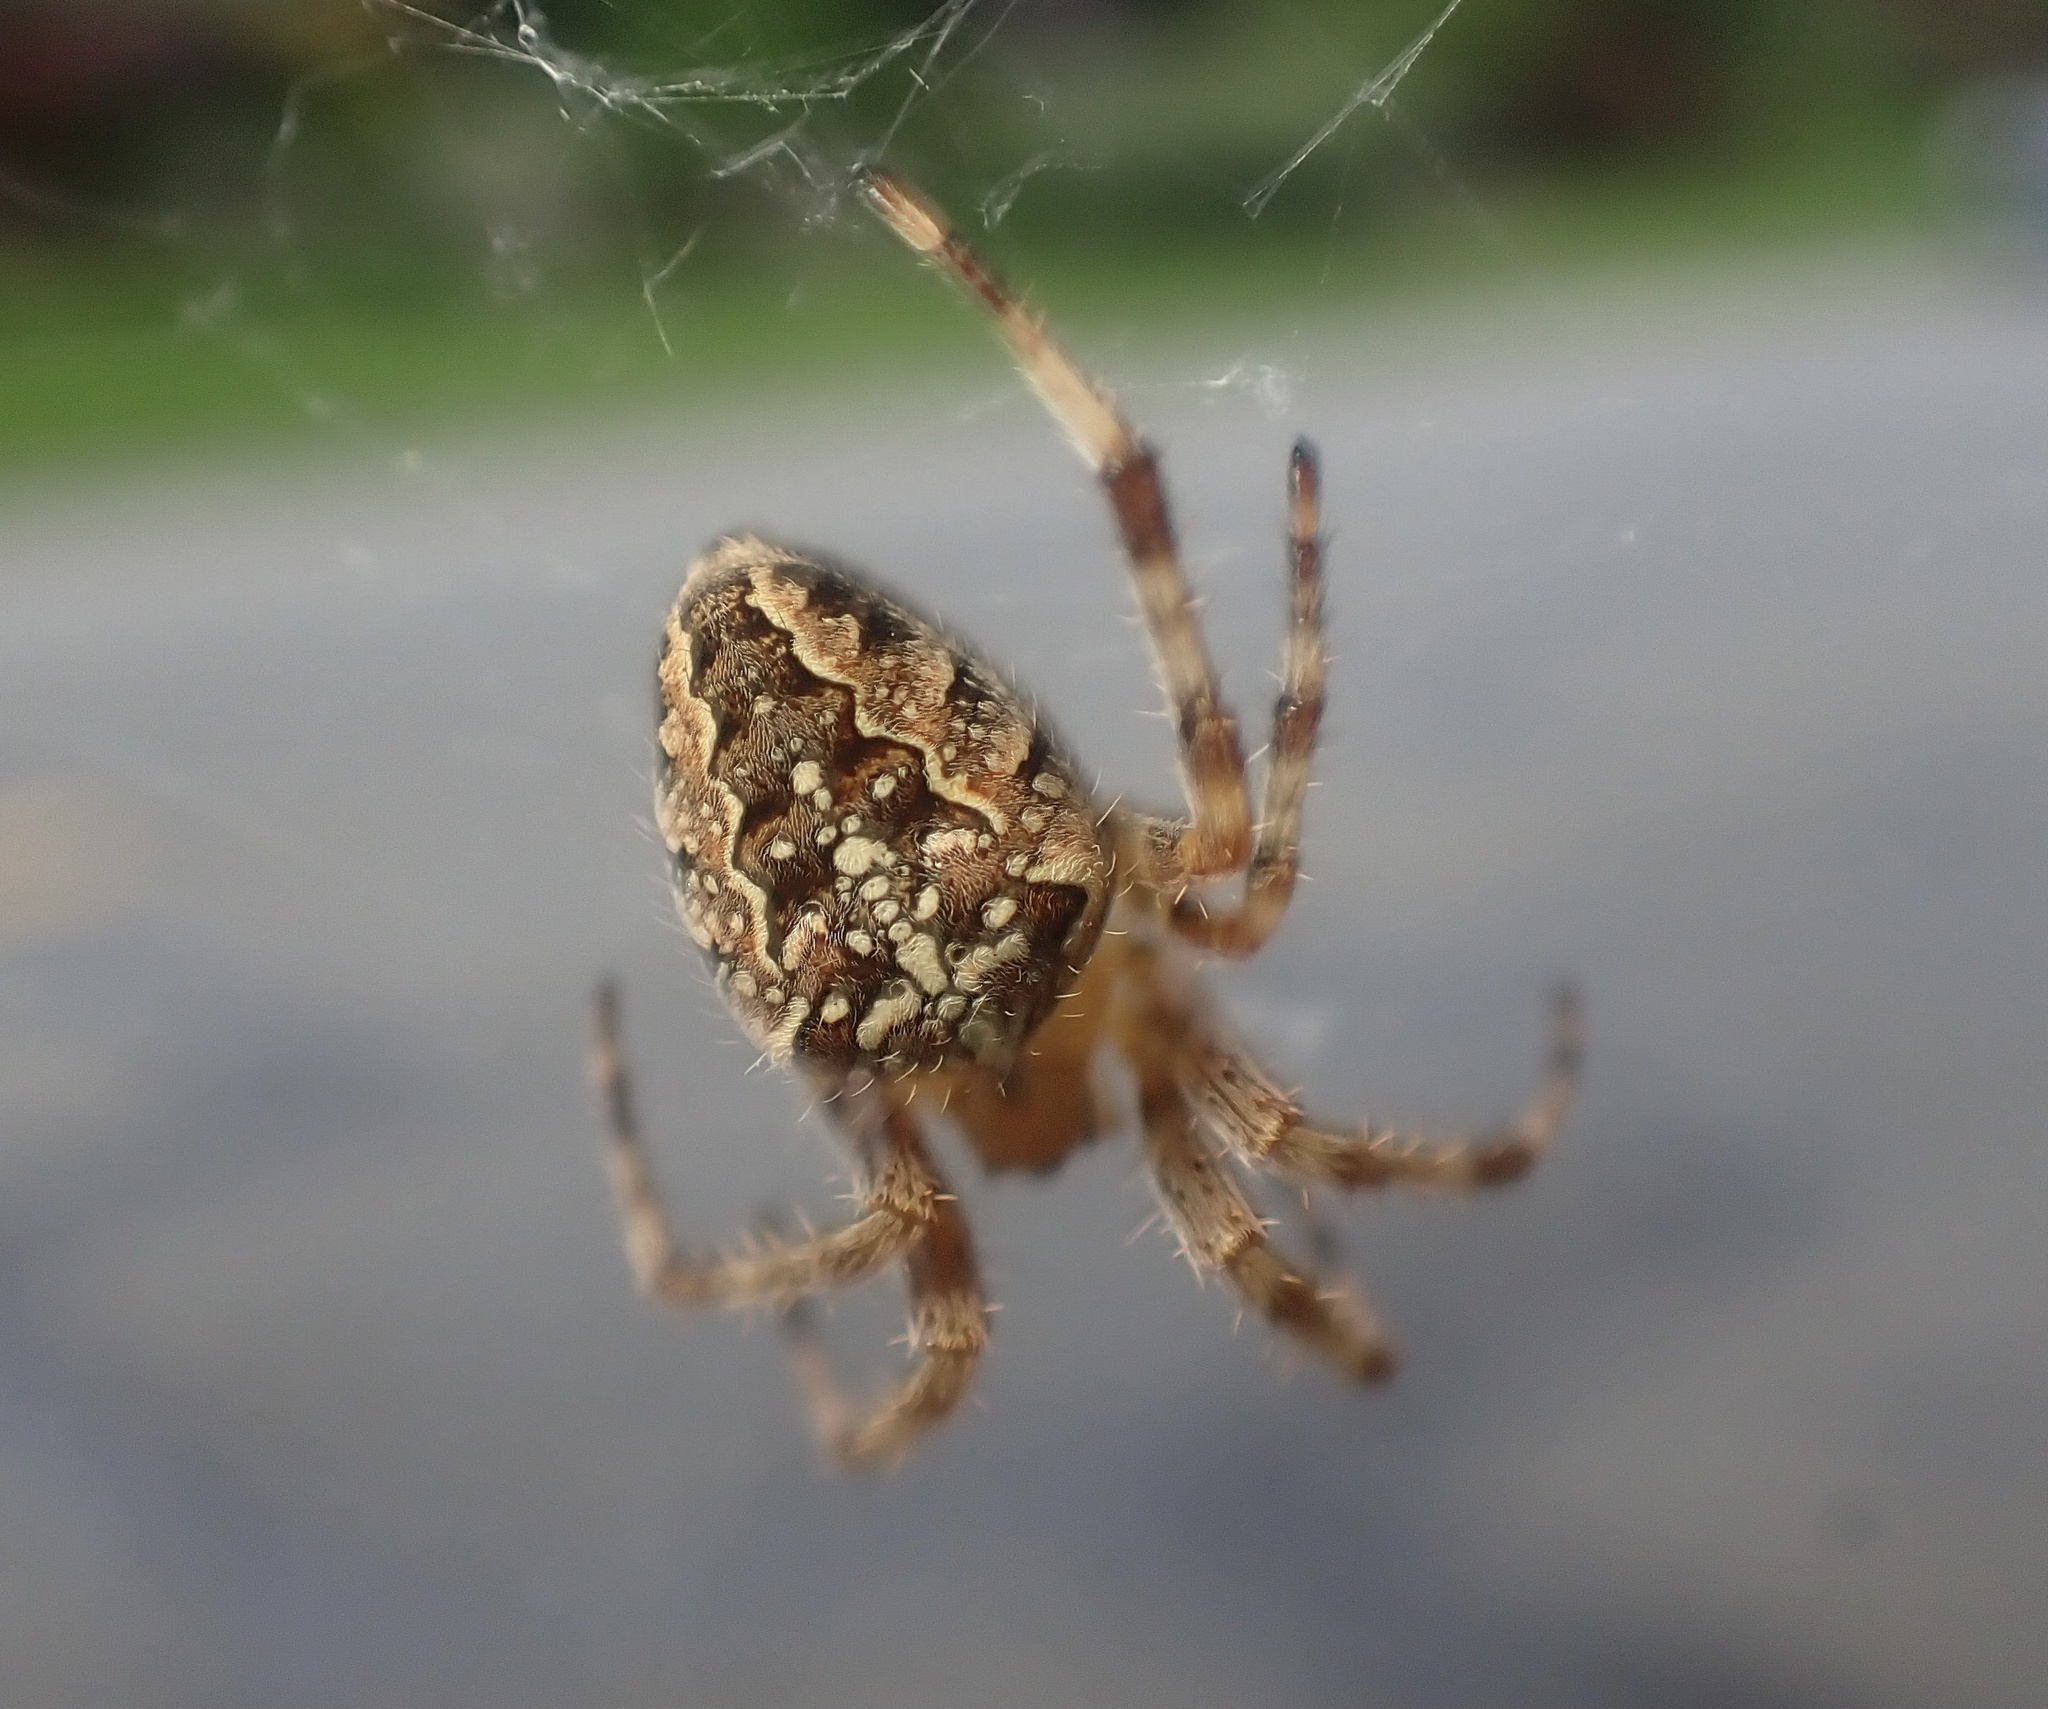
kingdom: Animalia
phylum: Arthropoda
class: Arachnida
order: Araneae
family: Araneidae
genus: Araneus
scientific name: Araneus diadematus
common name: Cross orbweaver
